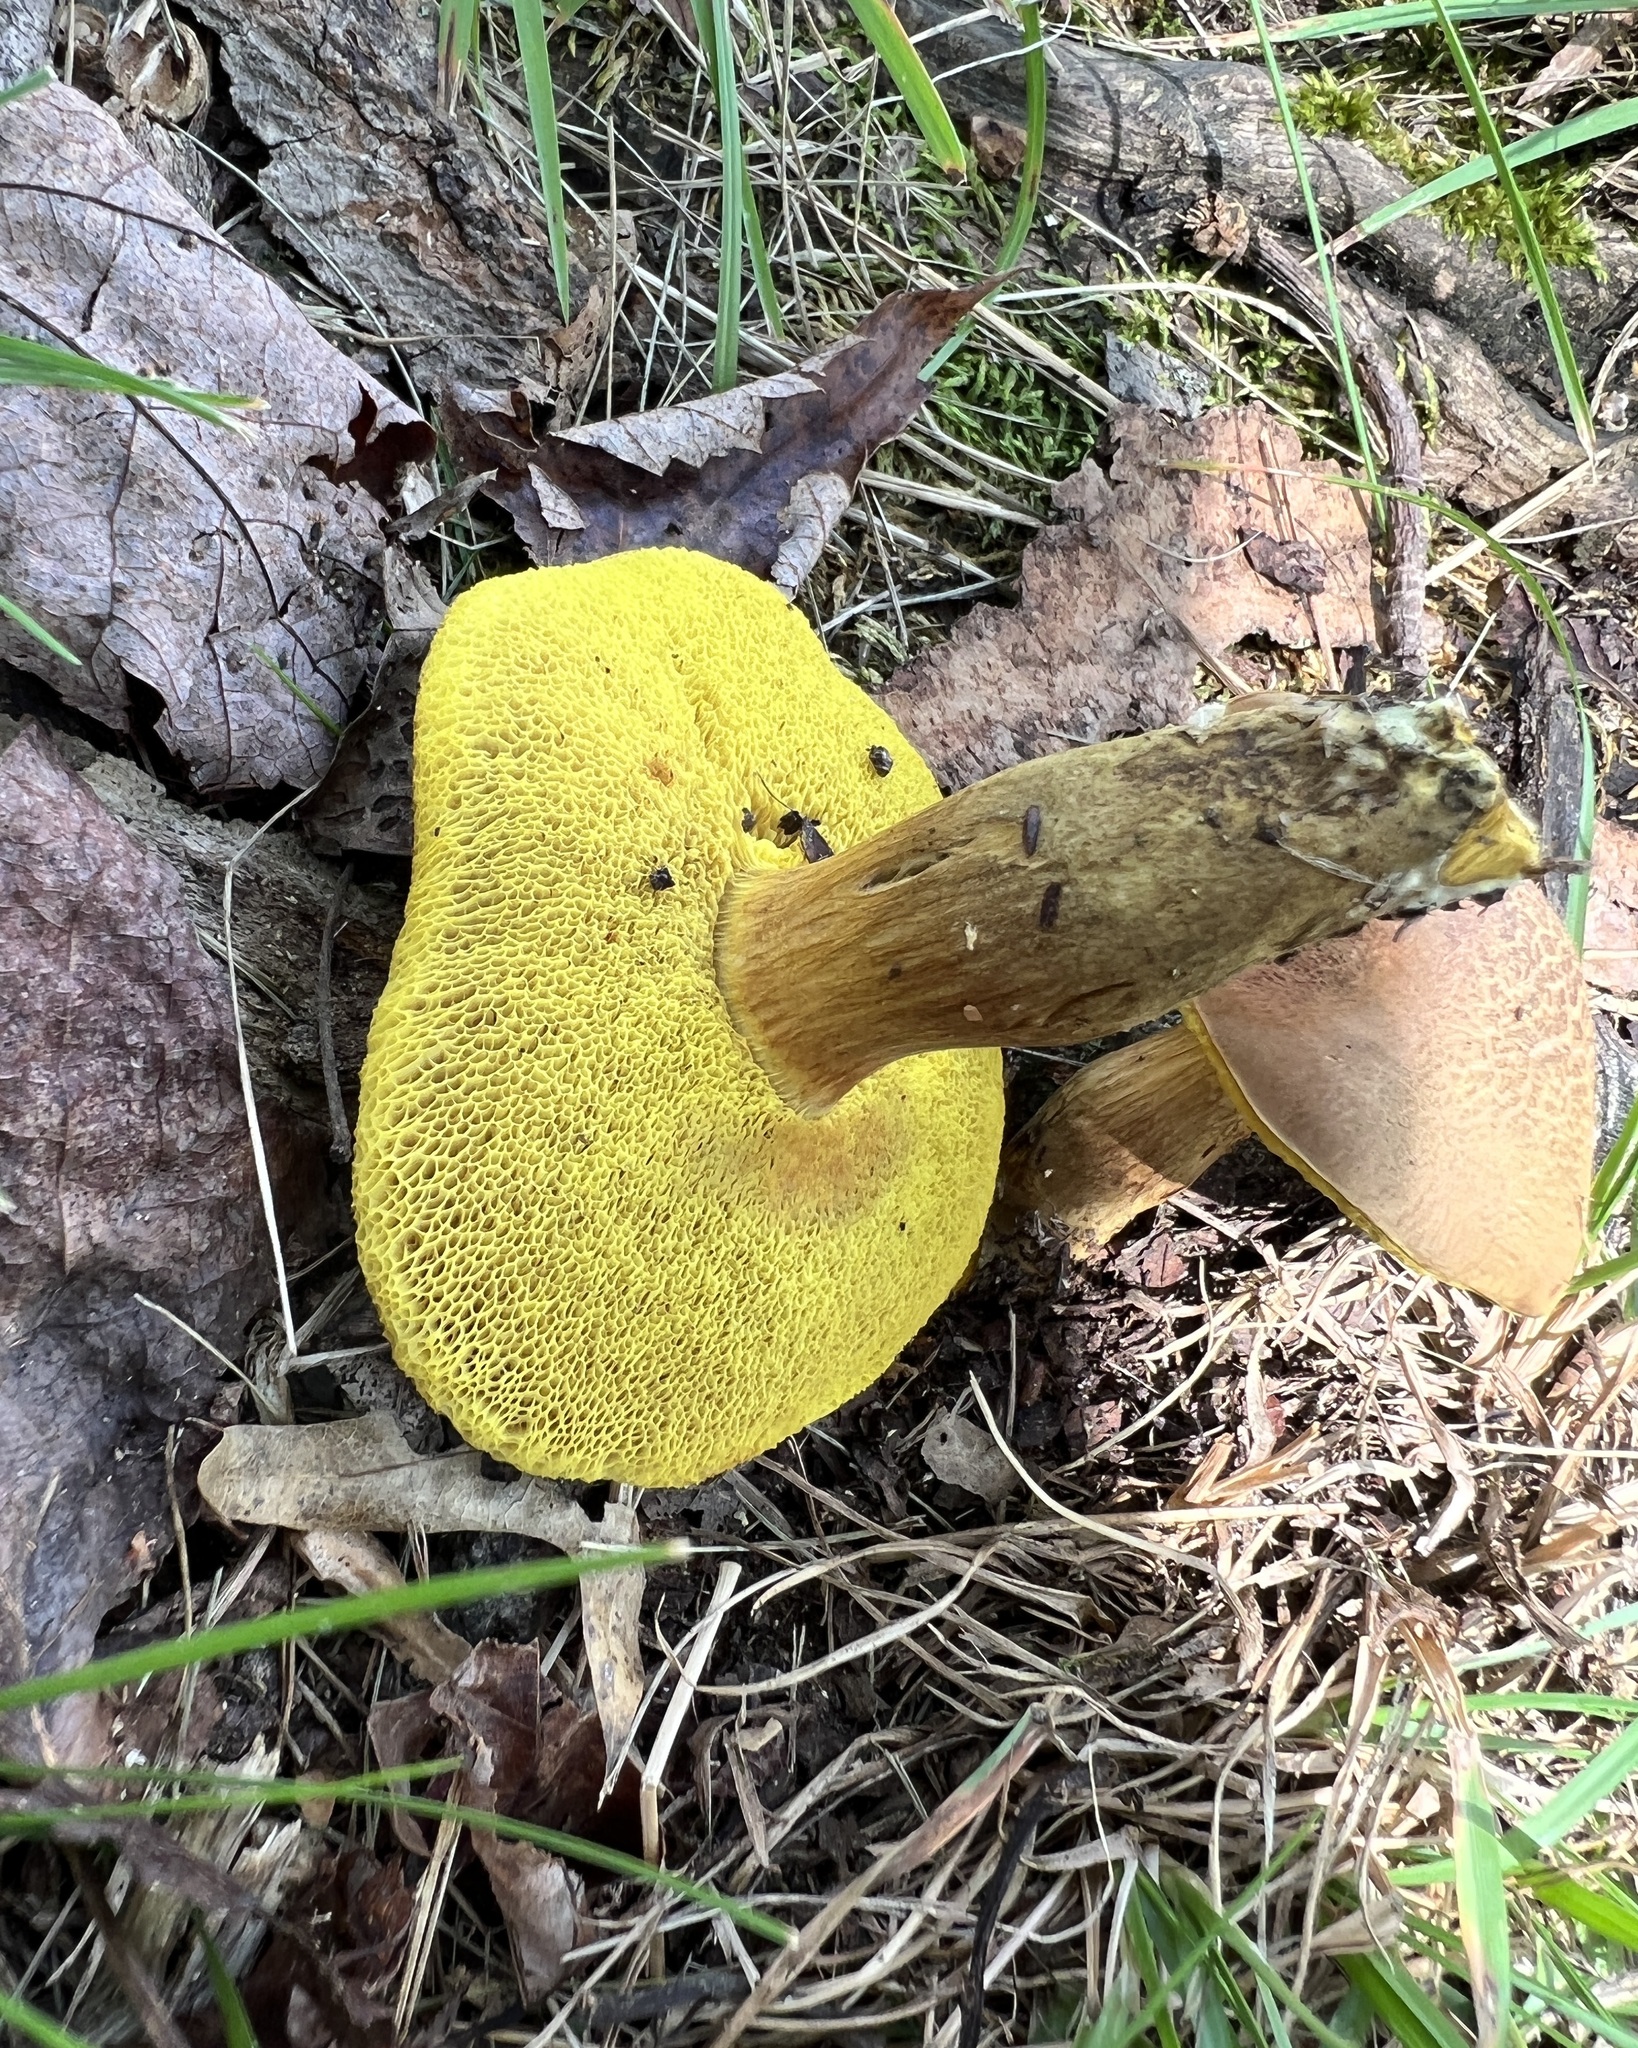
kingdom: Fungi
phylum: Basidiomycota
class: Agaricomycetes
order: Boletales
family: Boletaceae
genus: Aureoboletus
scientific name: Aureoboletus innixus
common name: Clustered brown bolete
